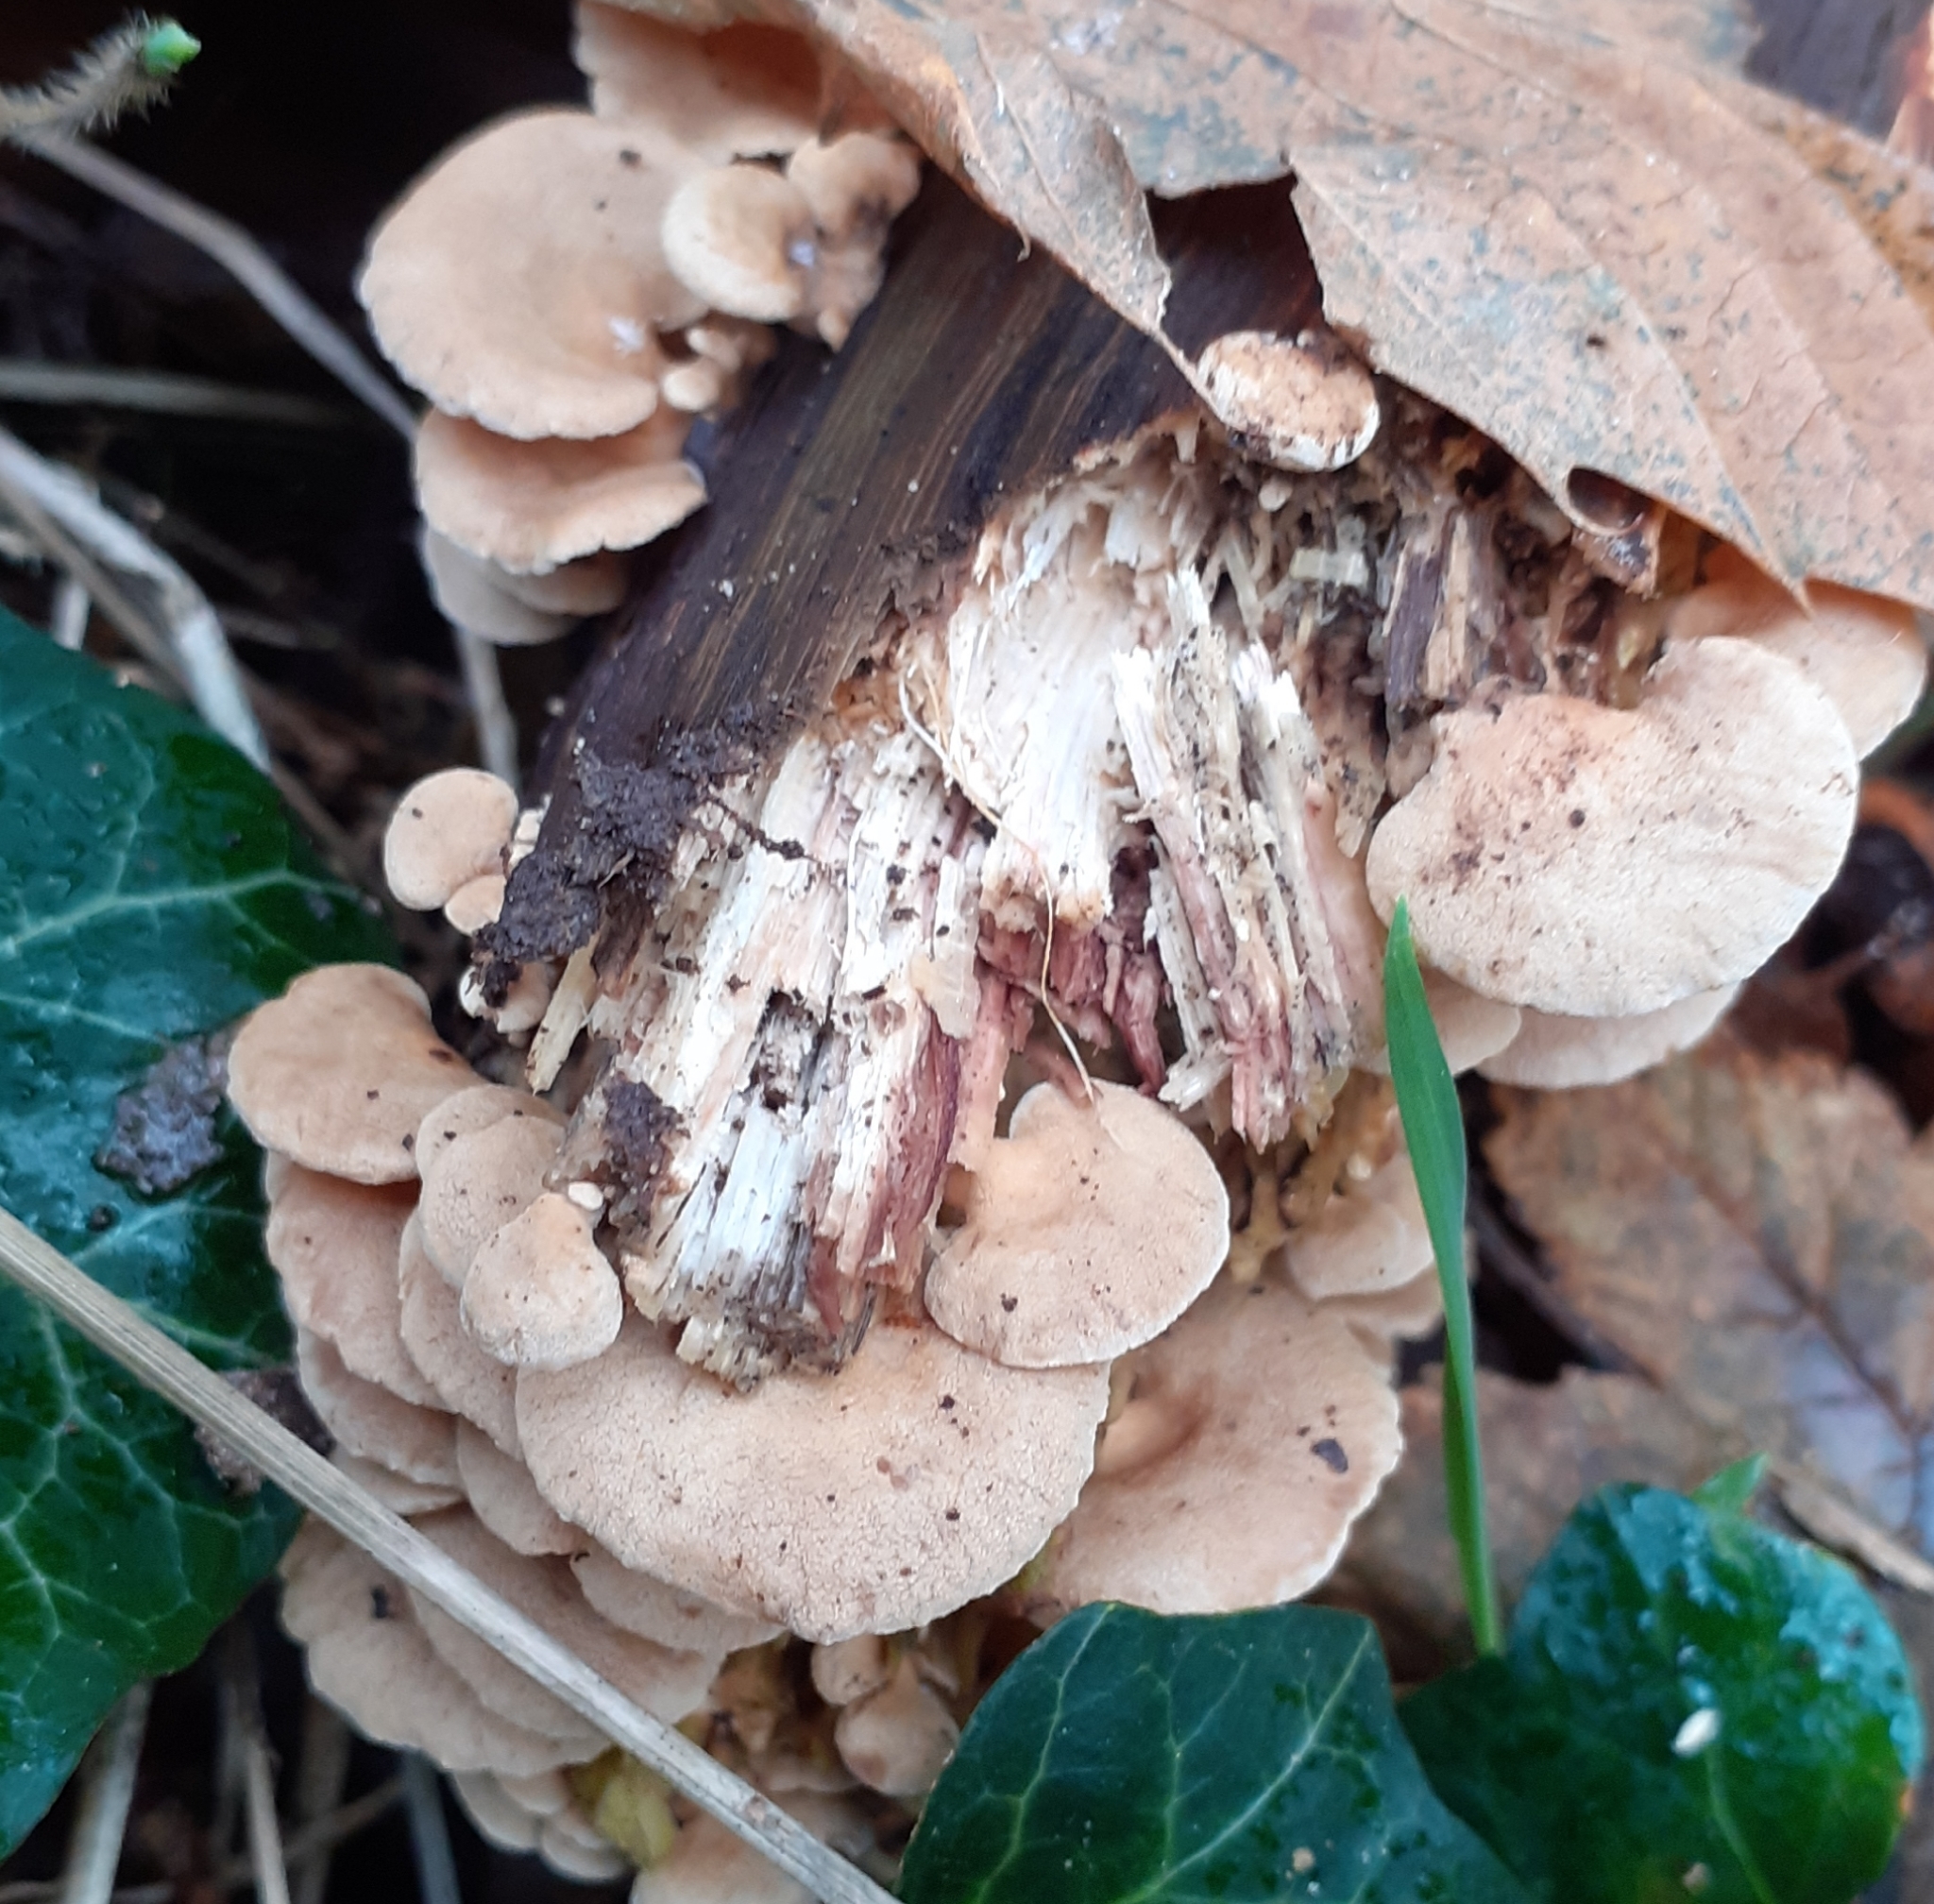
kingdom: Fungi
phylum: Basidiomycota
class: Agaricomycetes
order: Agaricales
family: Mycenaceae
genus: Panellus
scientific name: Panellus stipticus
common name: Bitter oysterling
